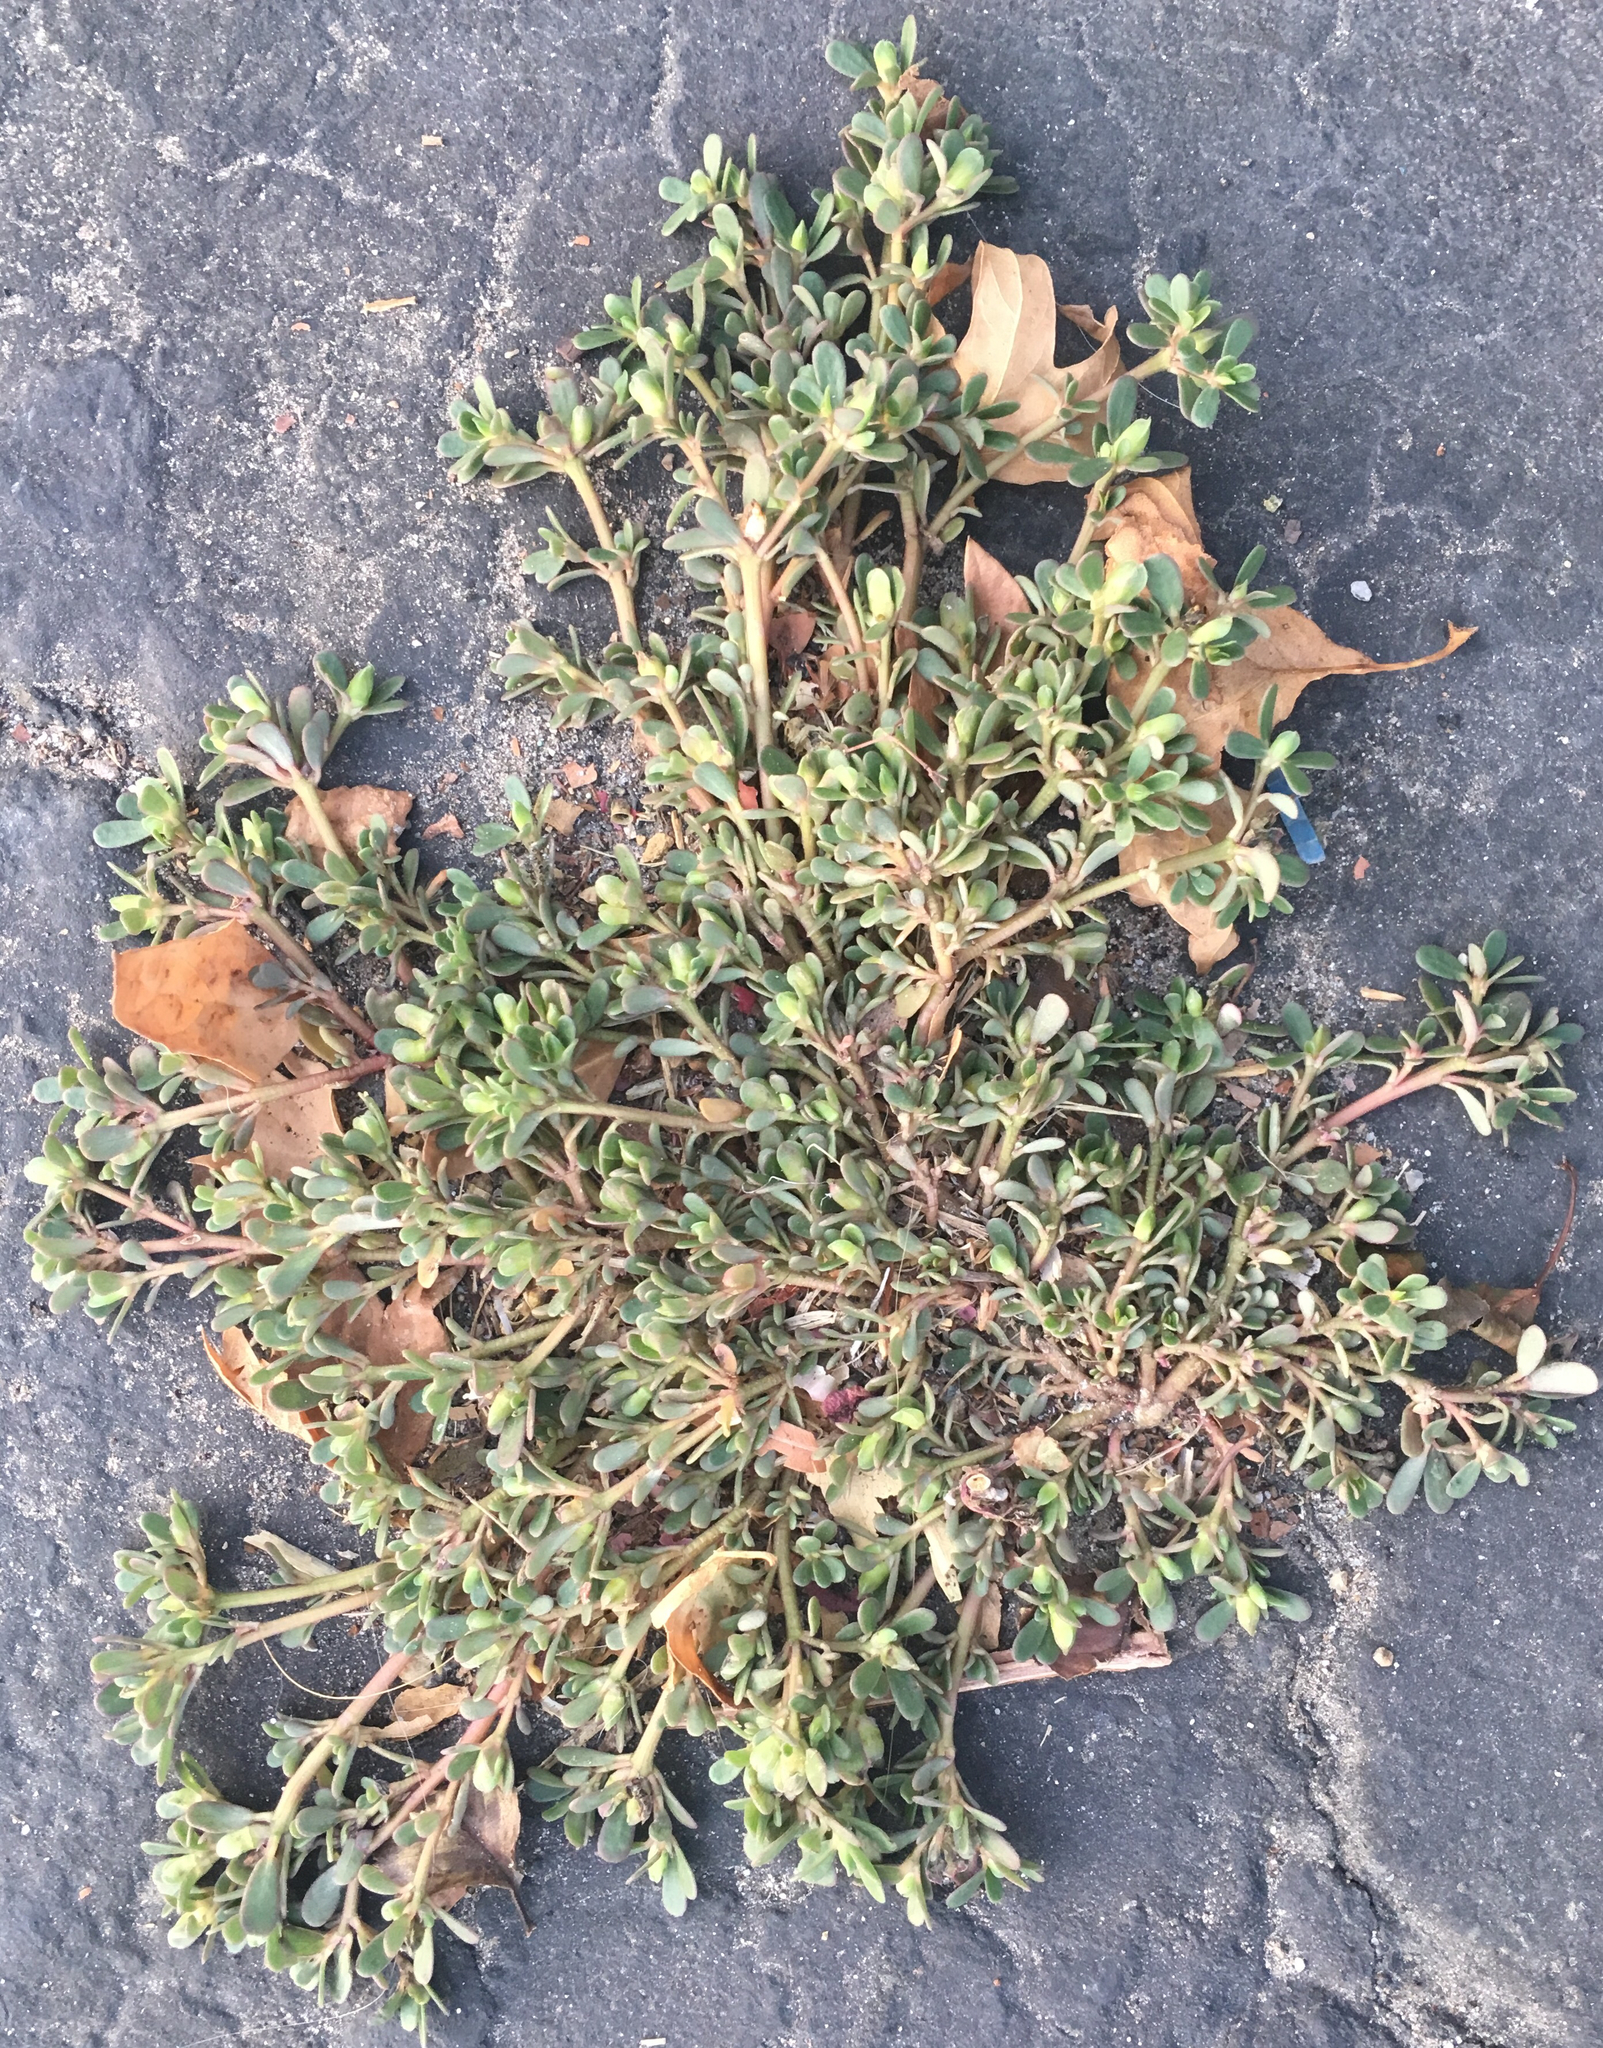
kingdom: Plantae
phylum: Tracheophyta
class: Magnoliopsida
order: Caryophyllales
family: Portulacaceae
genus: Portulaca
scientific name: Portulaca oleracea
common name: Common purslane
